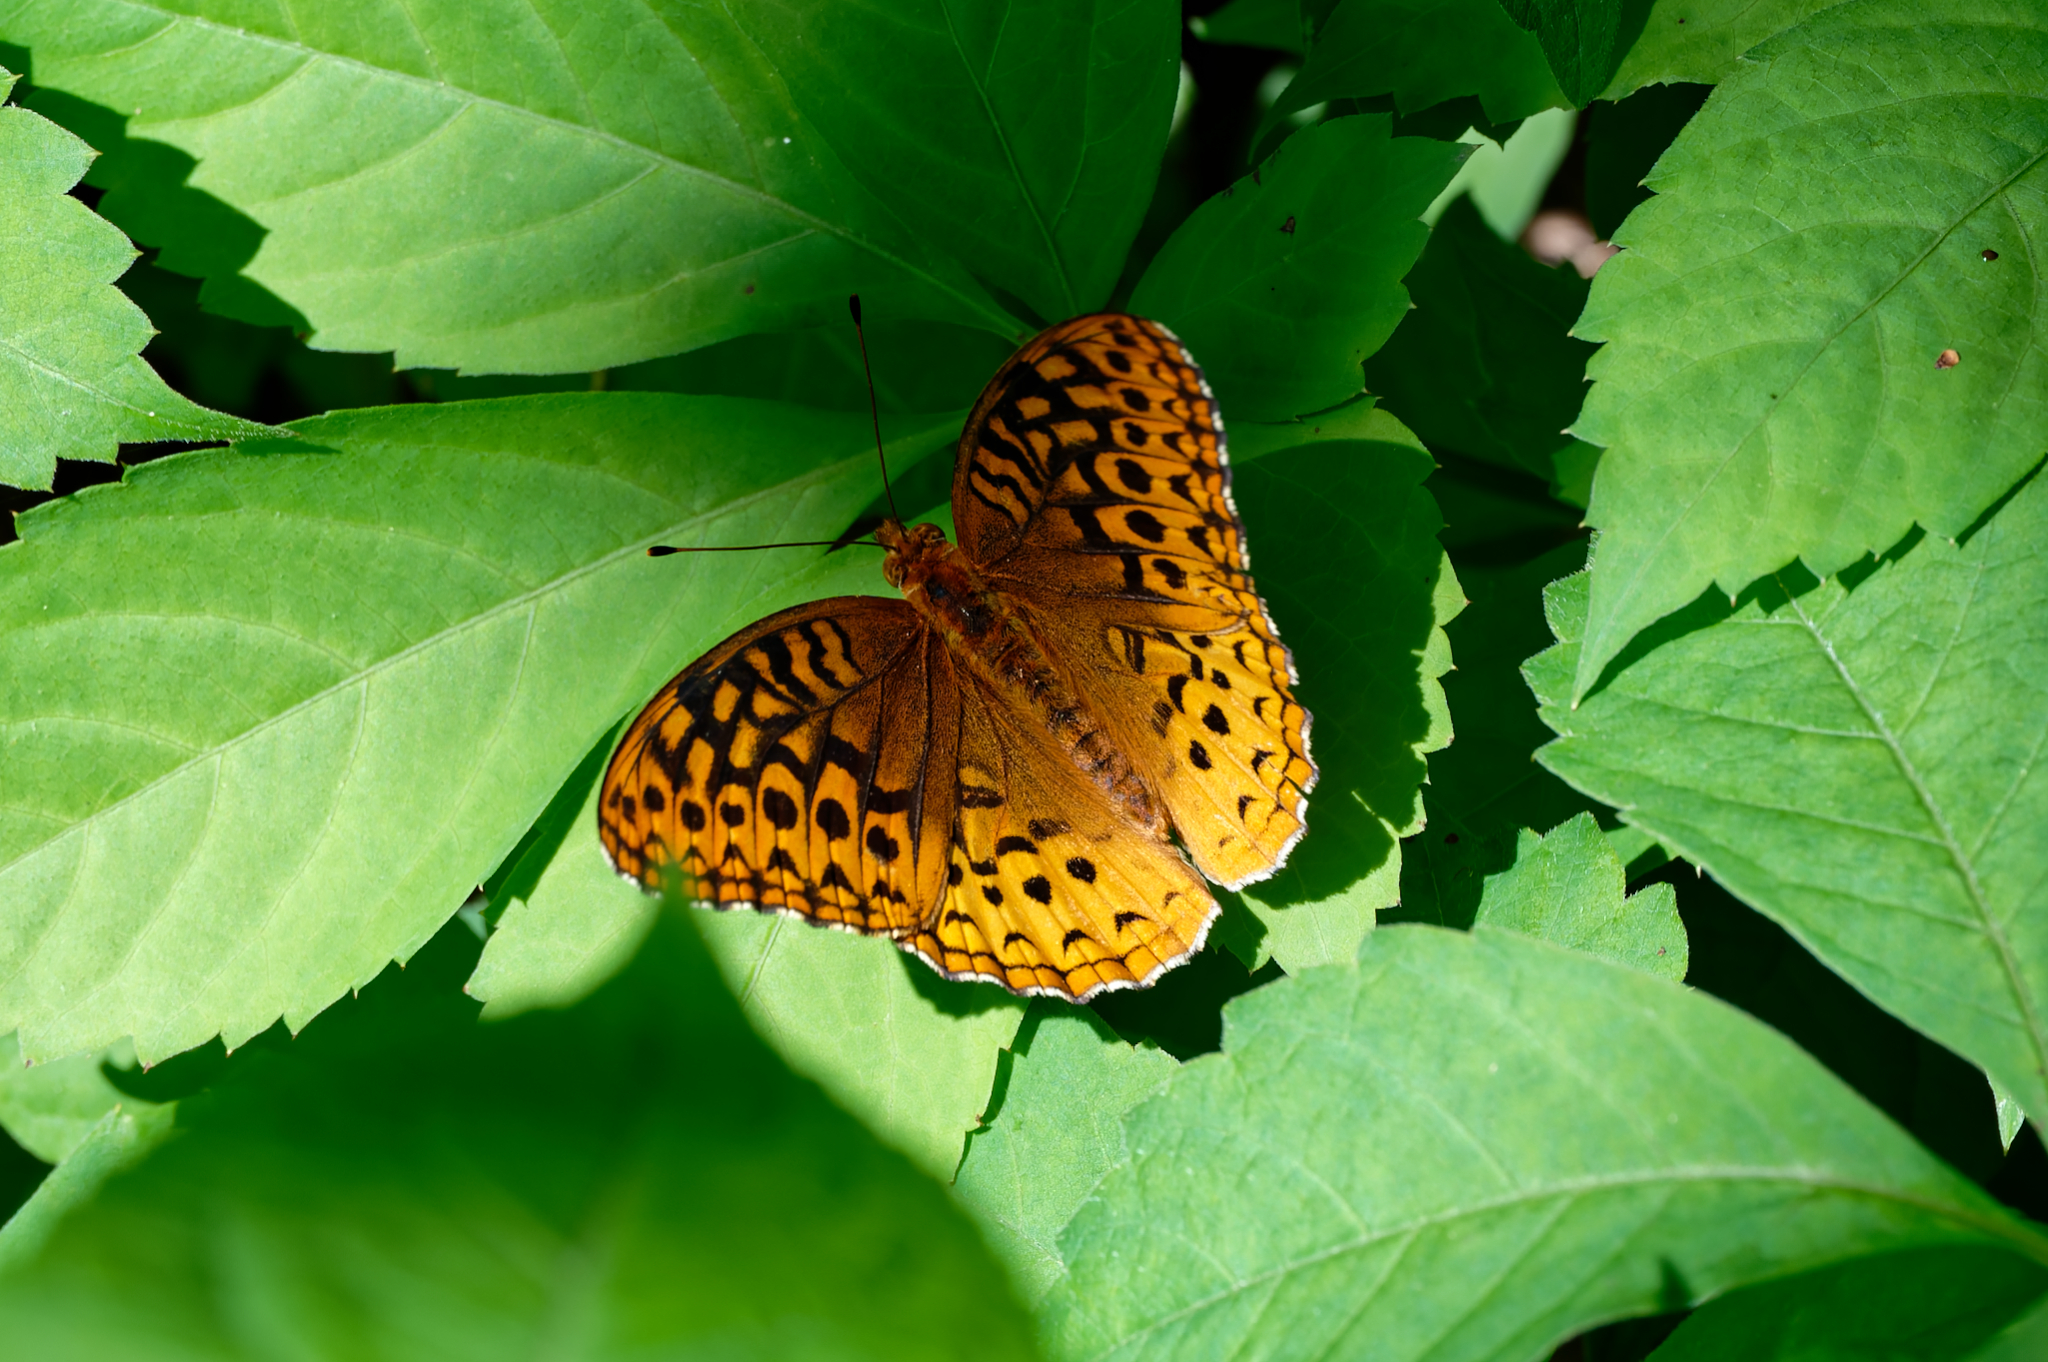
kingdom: Animalia
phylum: Arthropoda
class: Insecta
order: Lepidoptera
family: Nymphalidae
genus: Speyeria
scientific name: Speyeria cybele
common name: Great spangled fritillary
